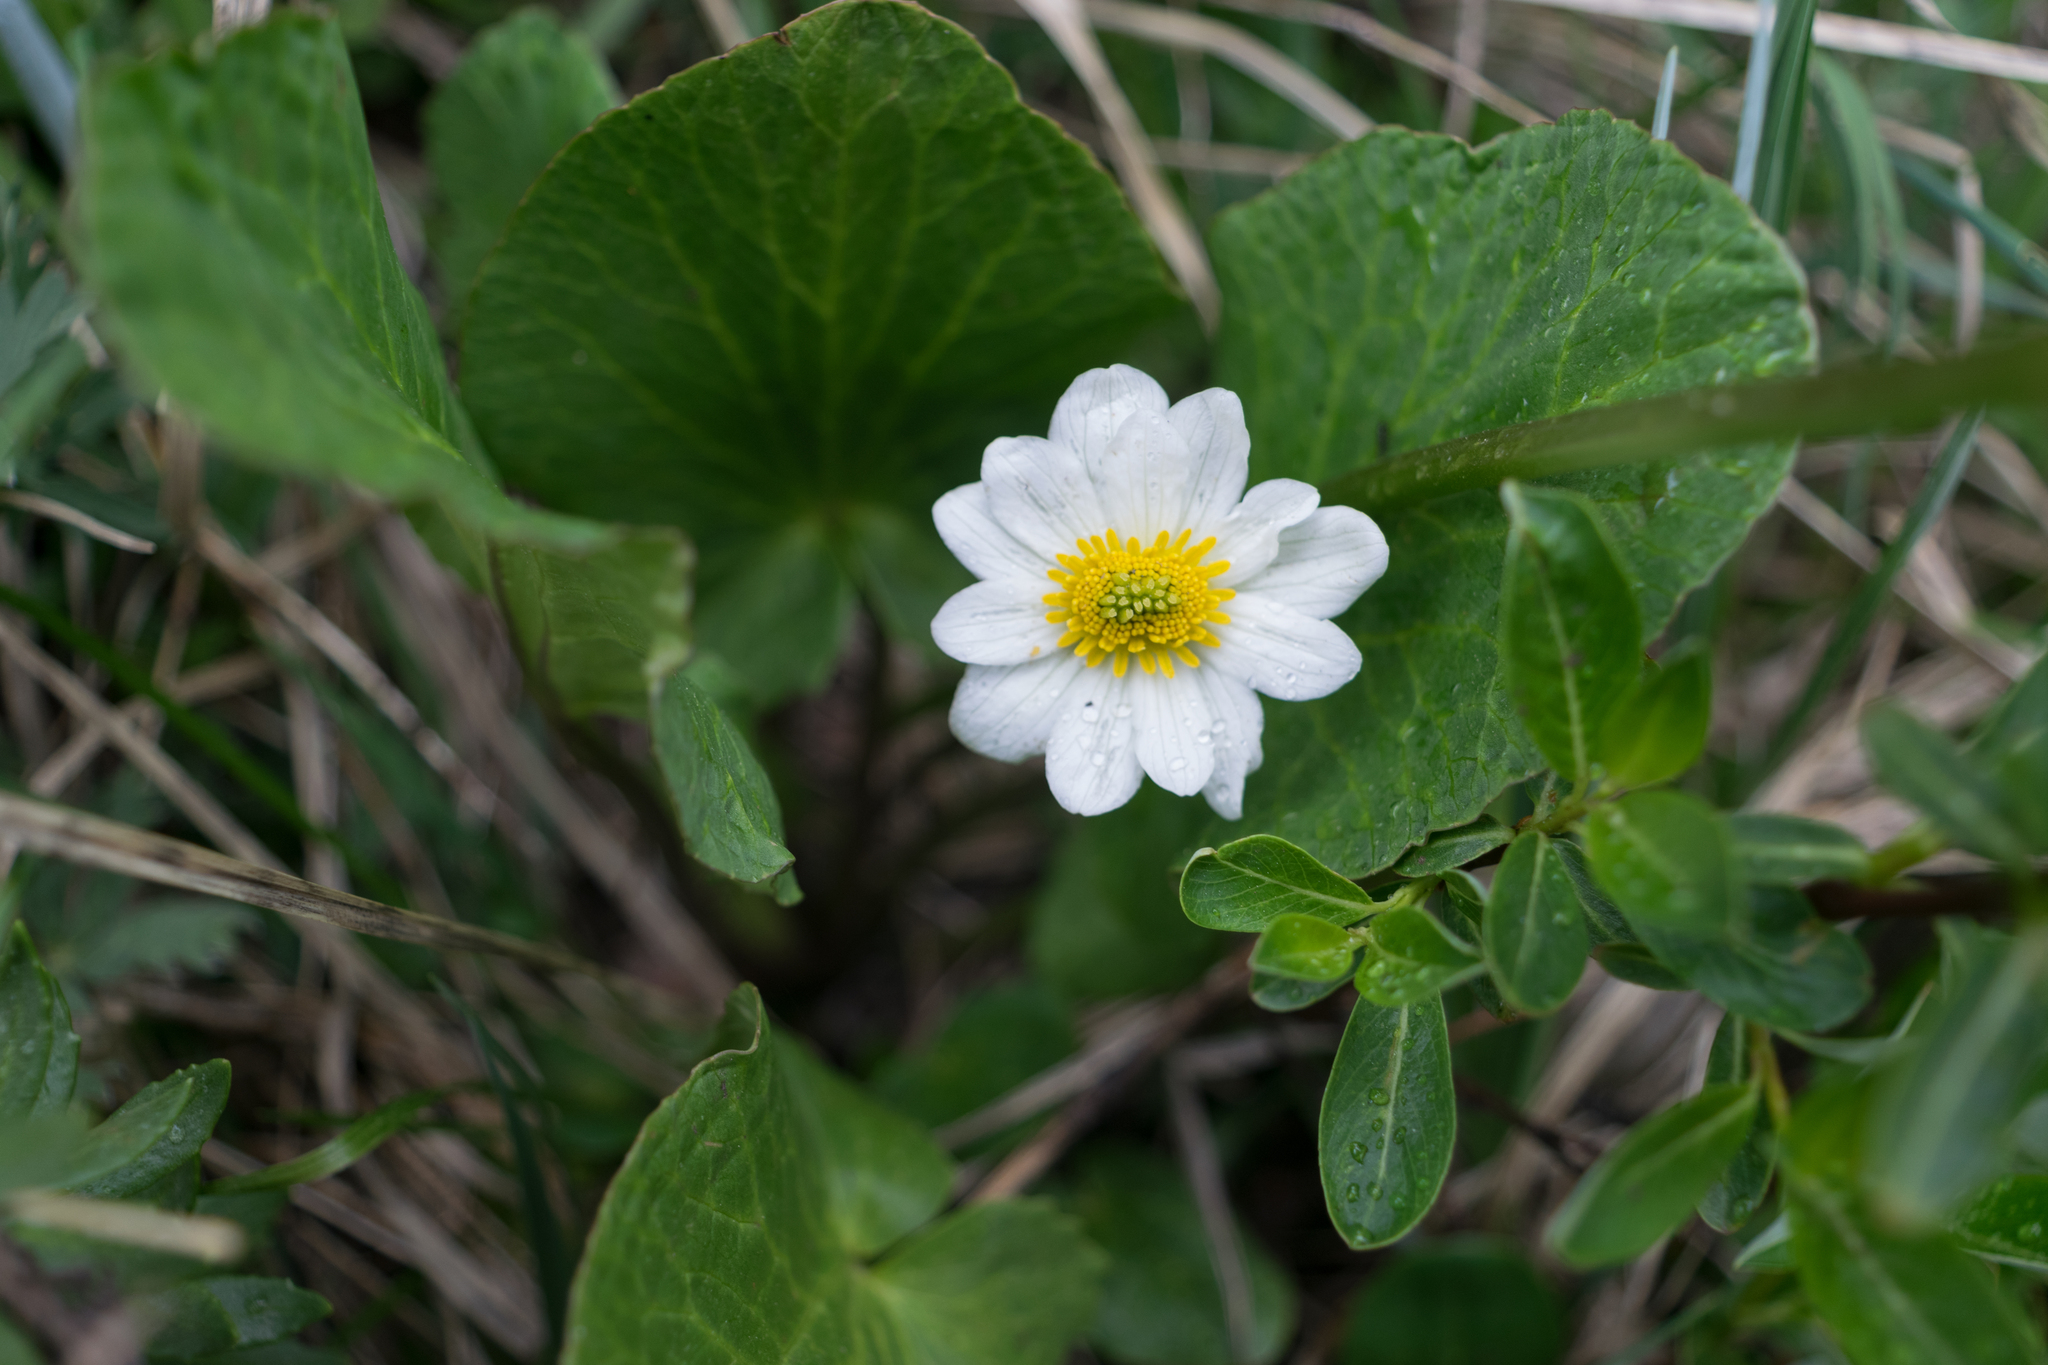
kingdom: Plantae
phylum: Tracheophyta
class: Magnoliopsida
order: Ranunculales
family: Ranunculaceae
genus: Caltha
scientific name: Caltha leptosepala
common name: Elkslip
